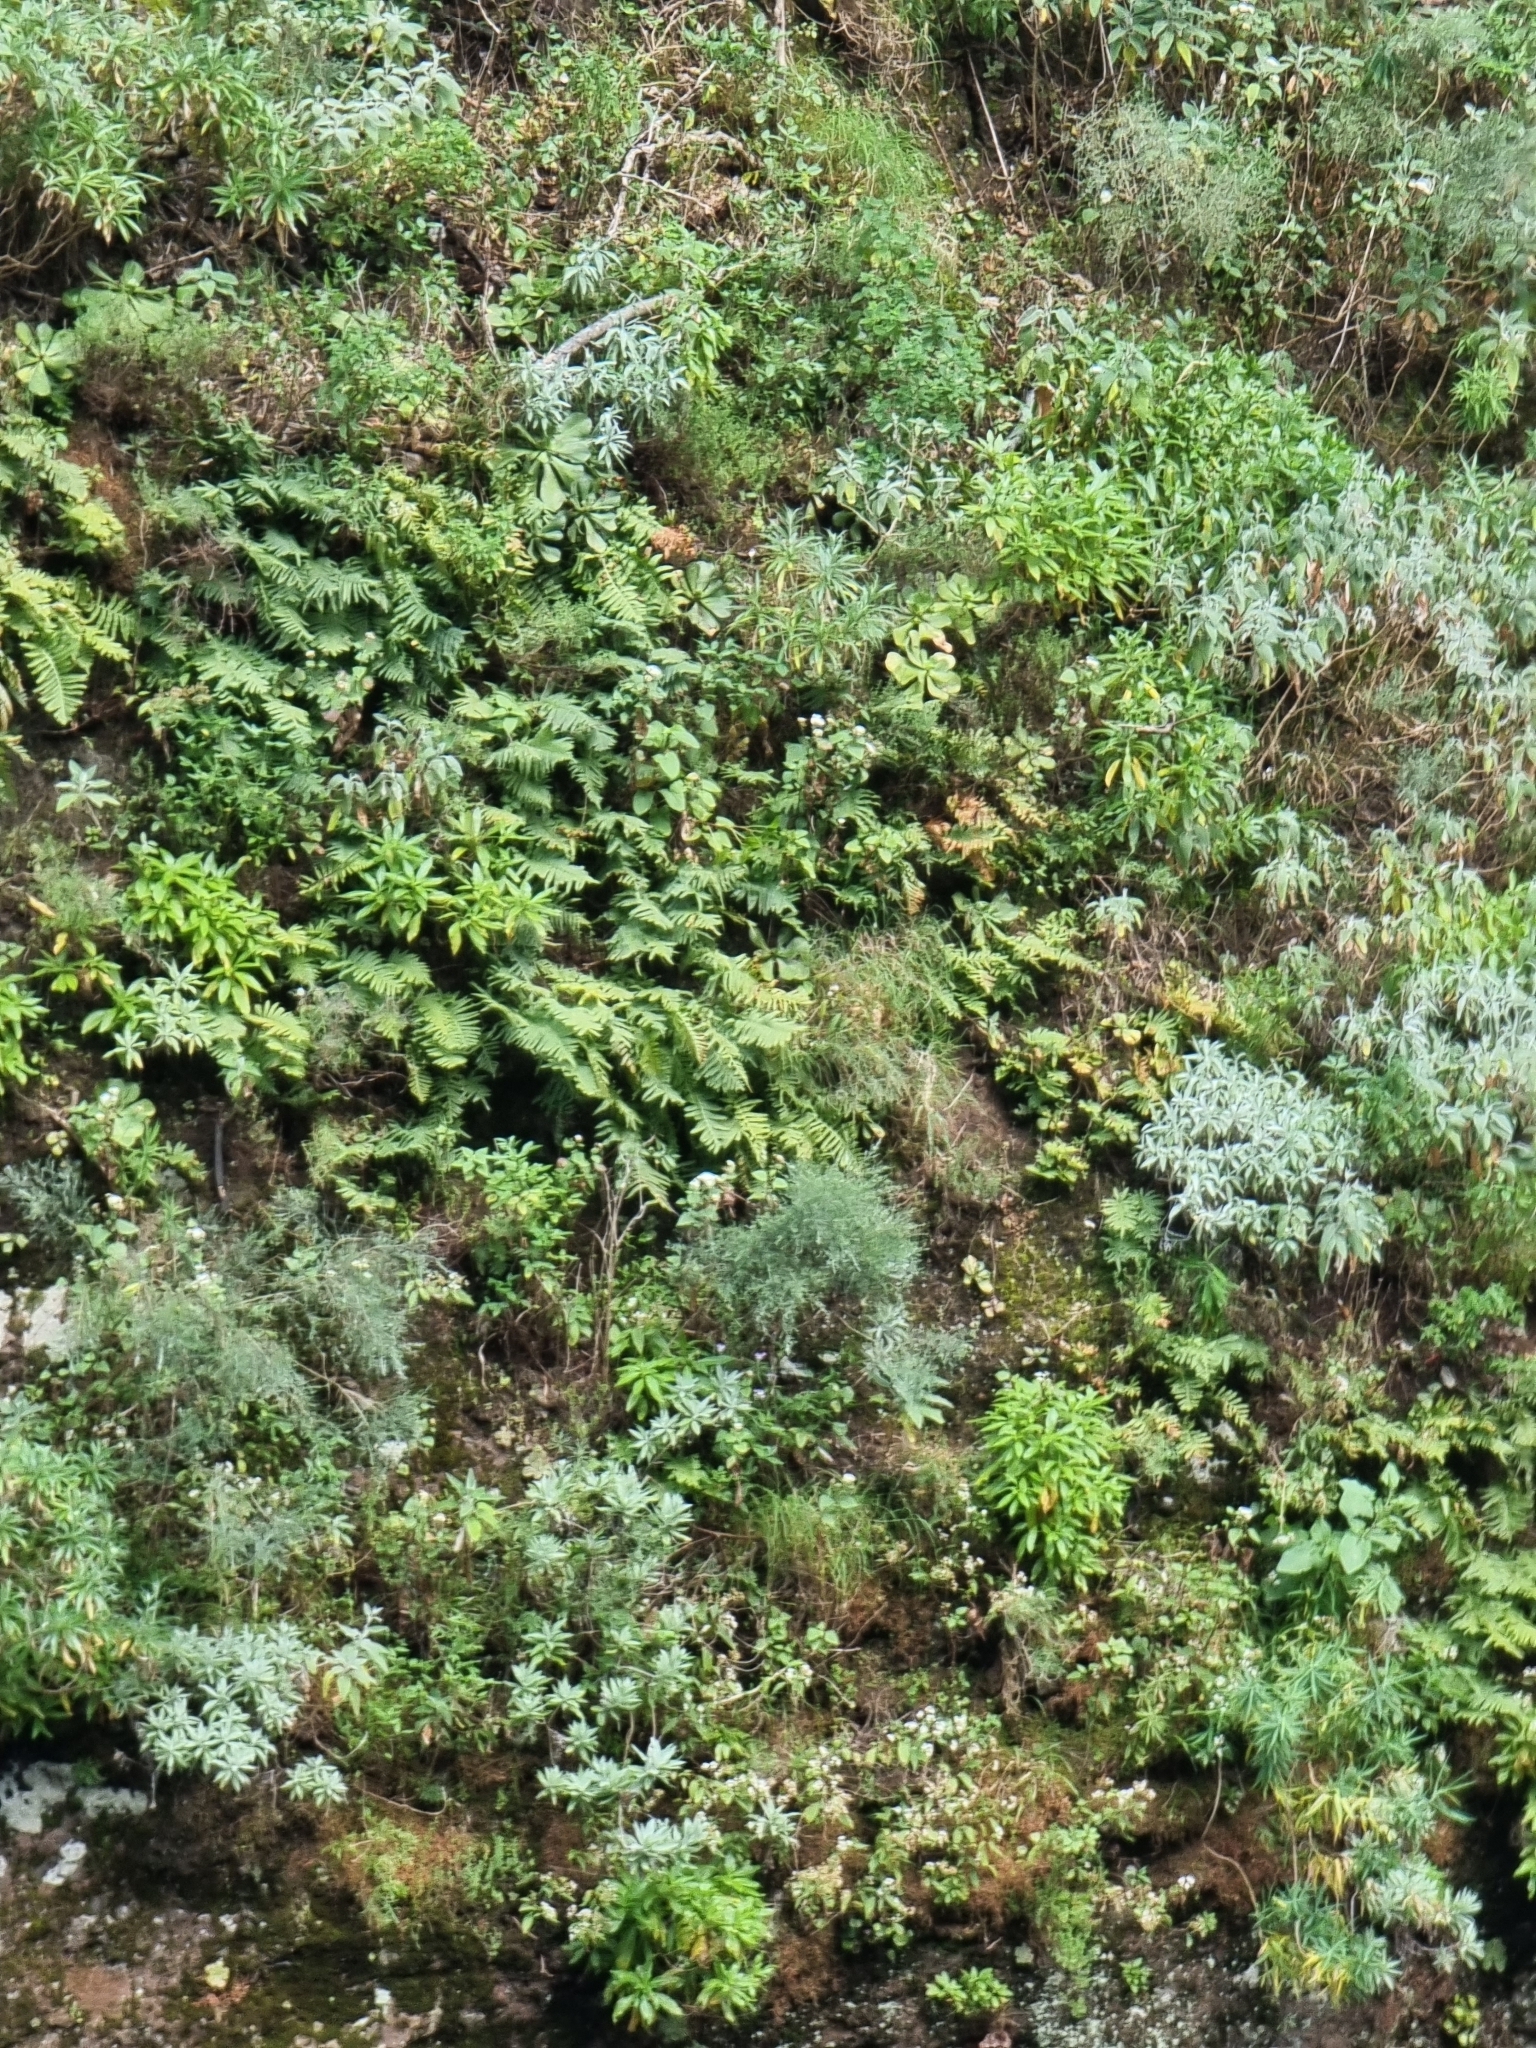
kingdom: Plantae
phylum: Tracheophyta
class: Polypodiopsida
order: Polypodiales
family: Polypodiaceae
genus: Polypodium
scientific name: Polypodium macaronesicum
